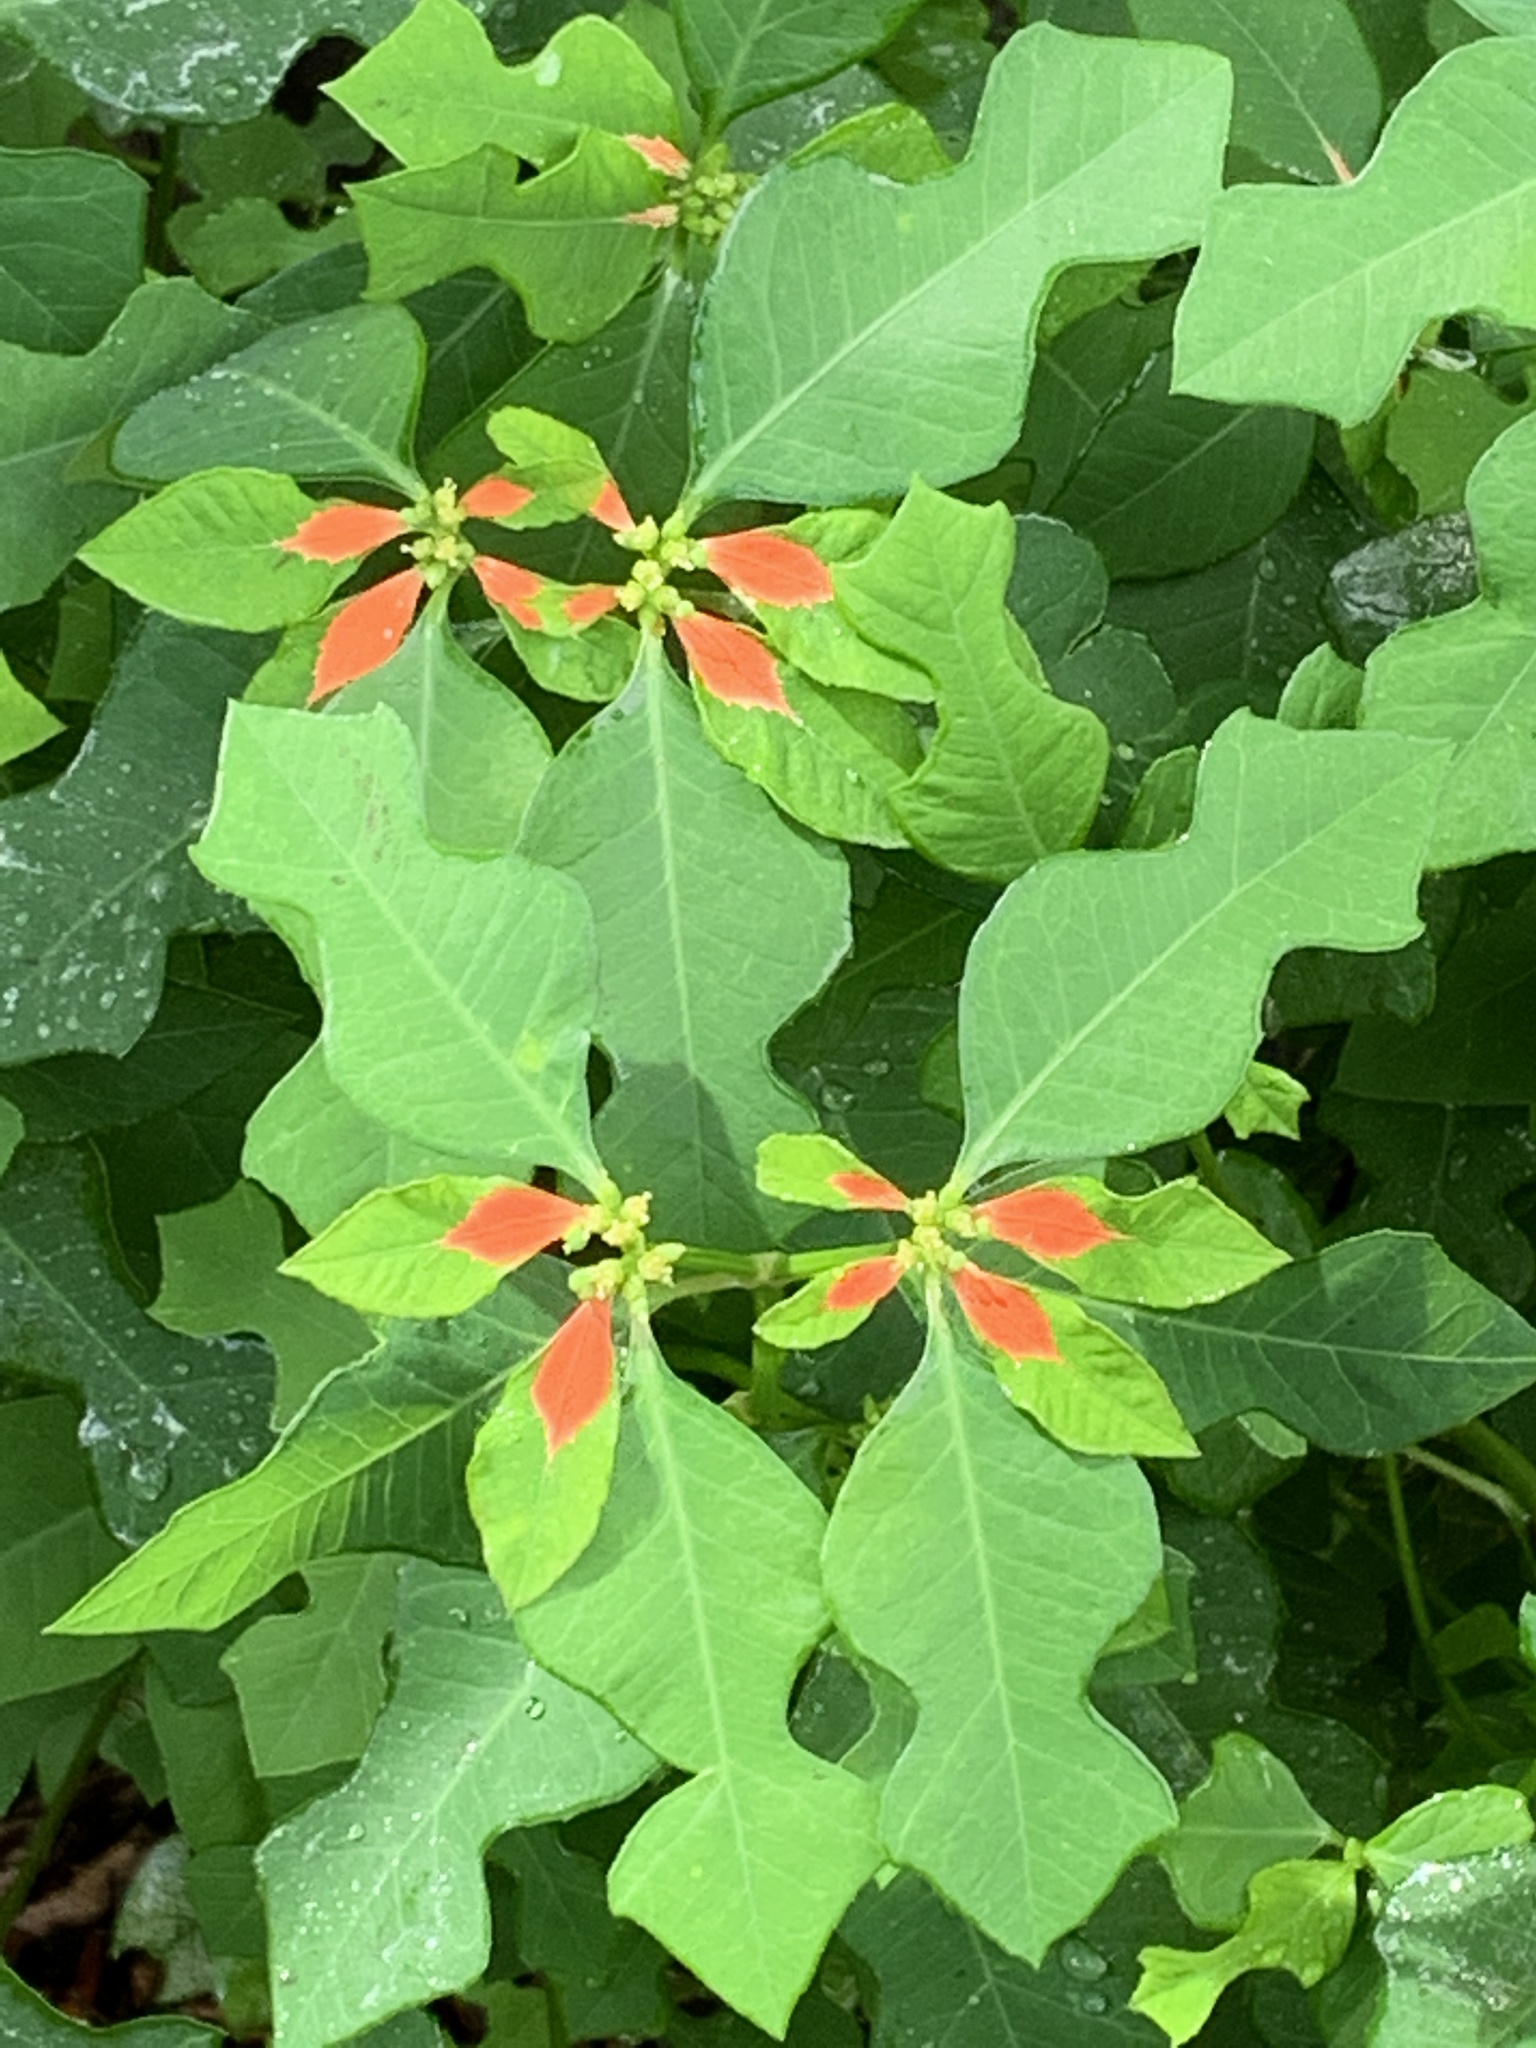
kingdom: Plantae
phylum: Tracheophyta
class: Magnoliopsida
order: Malpighiales
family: Euphorbiaceae
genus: Euphorbia
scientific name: Euphorbia heterophylla
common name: Mexican fireplant
